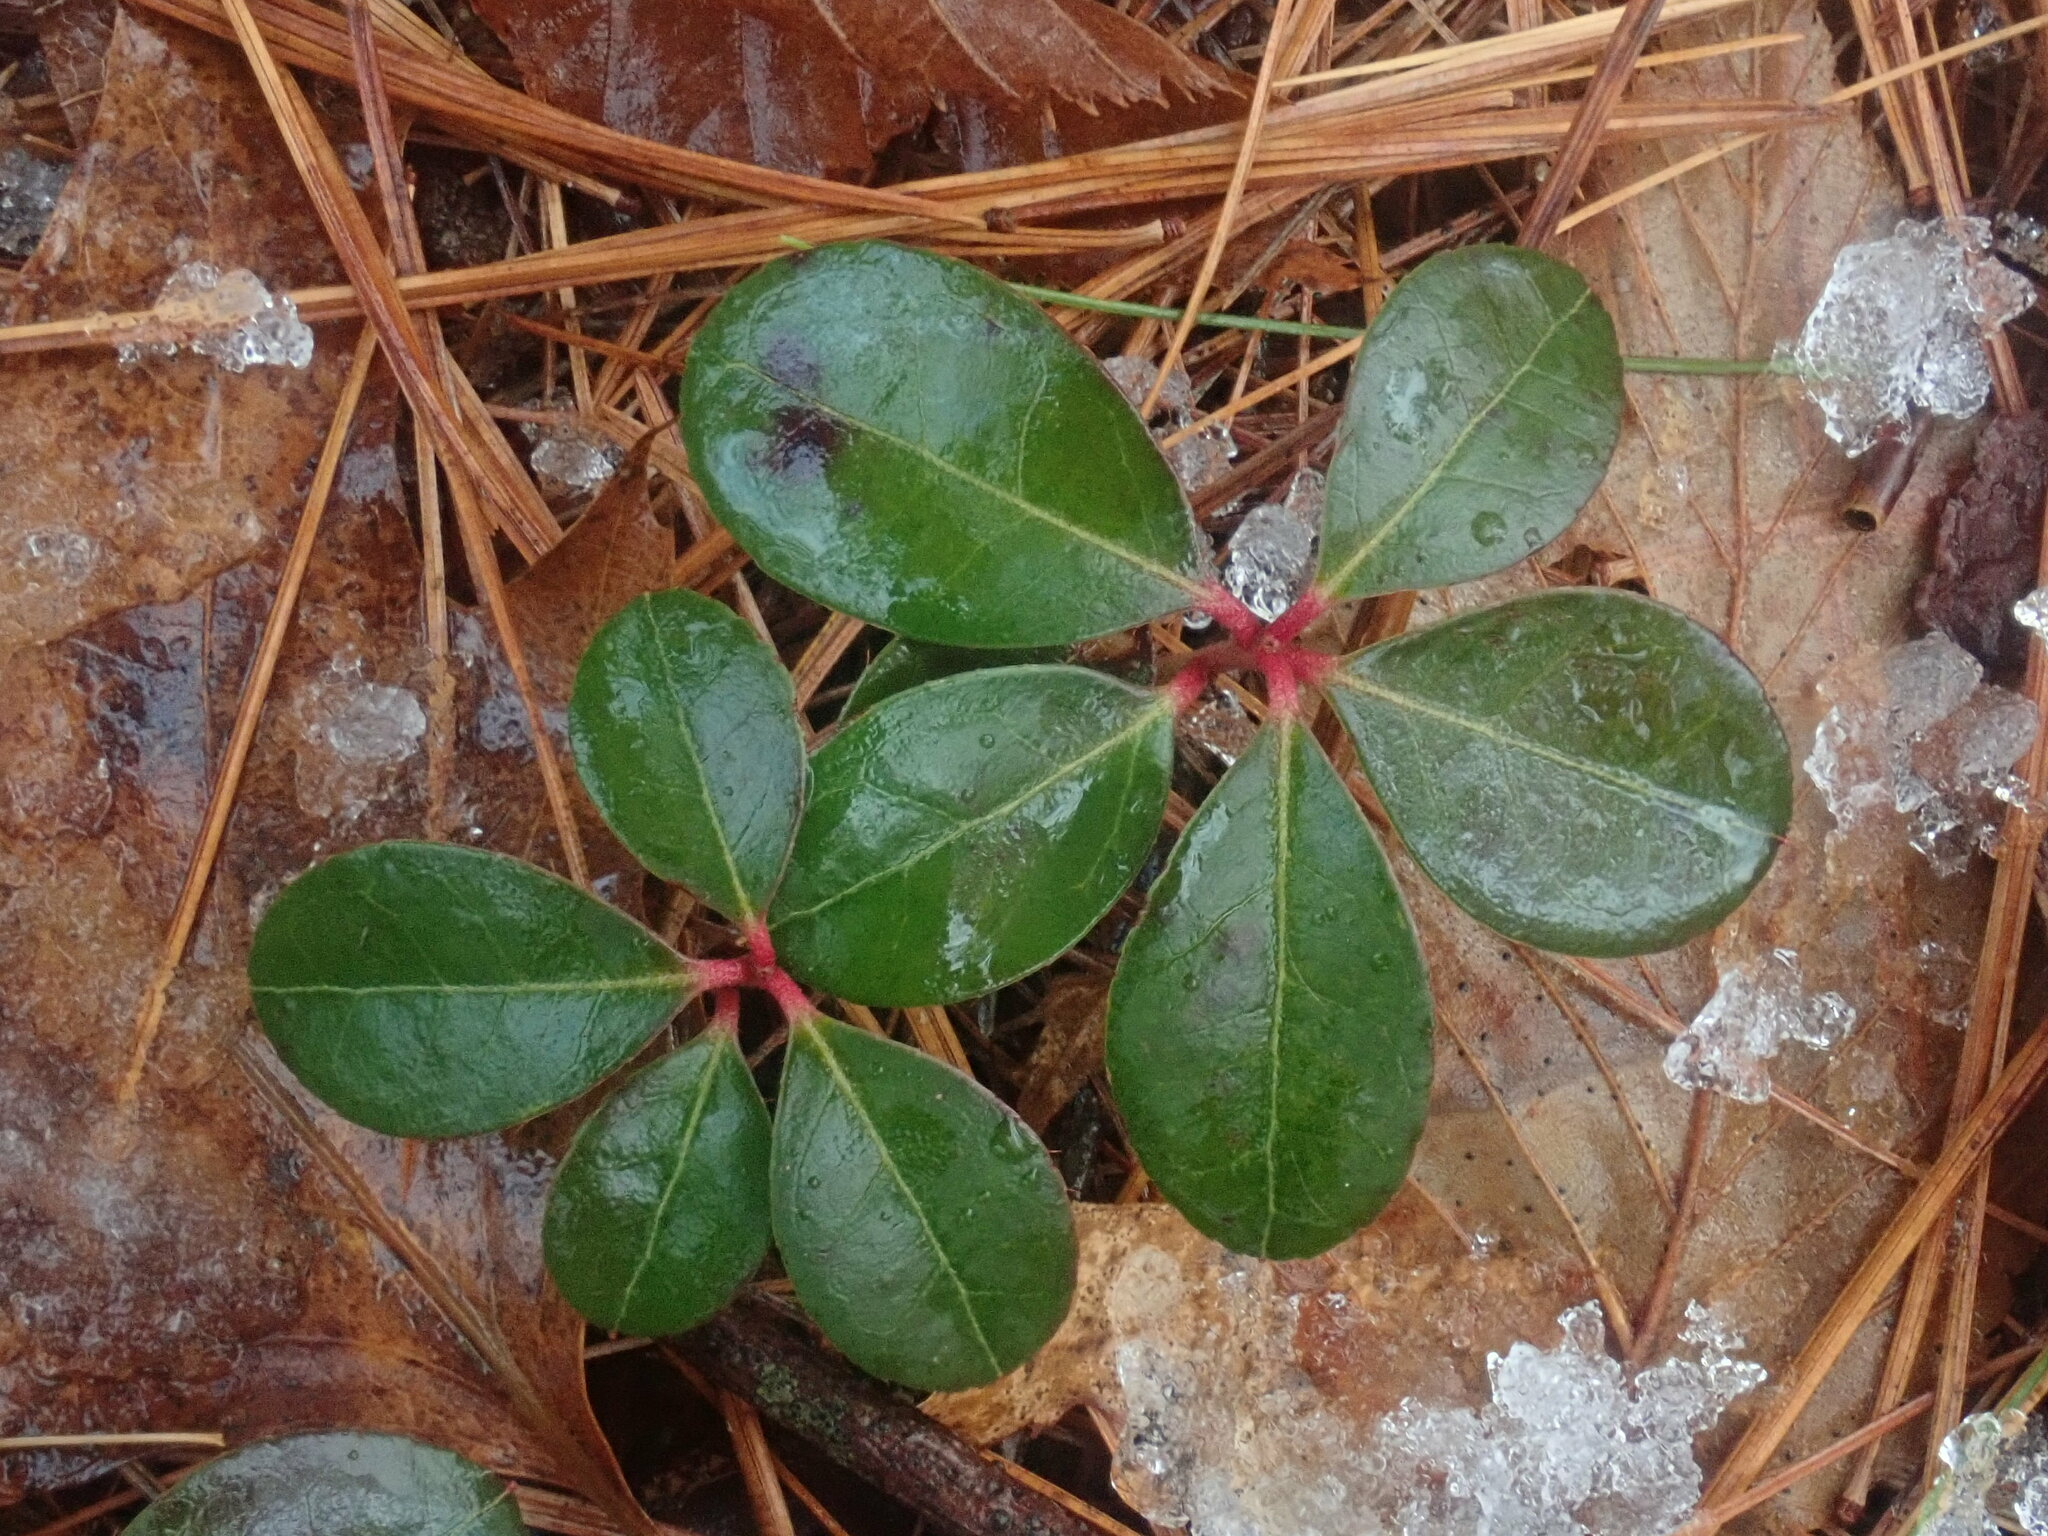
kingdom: Plantae
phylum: Tracheophyta
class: Magnoliopsida
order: Ericales
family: Ericaceae
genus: Gaultheria
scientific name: Gaultheria procumbens
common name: Checkerberry
